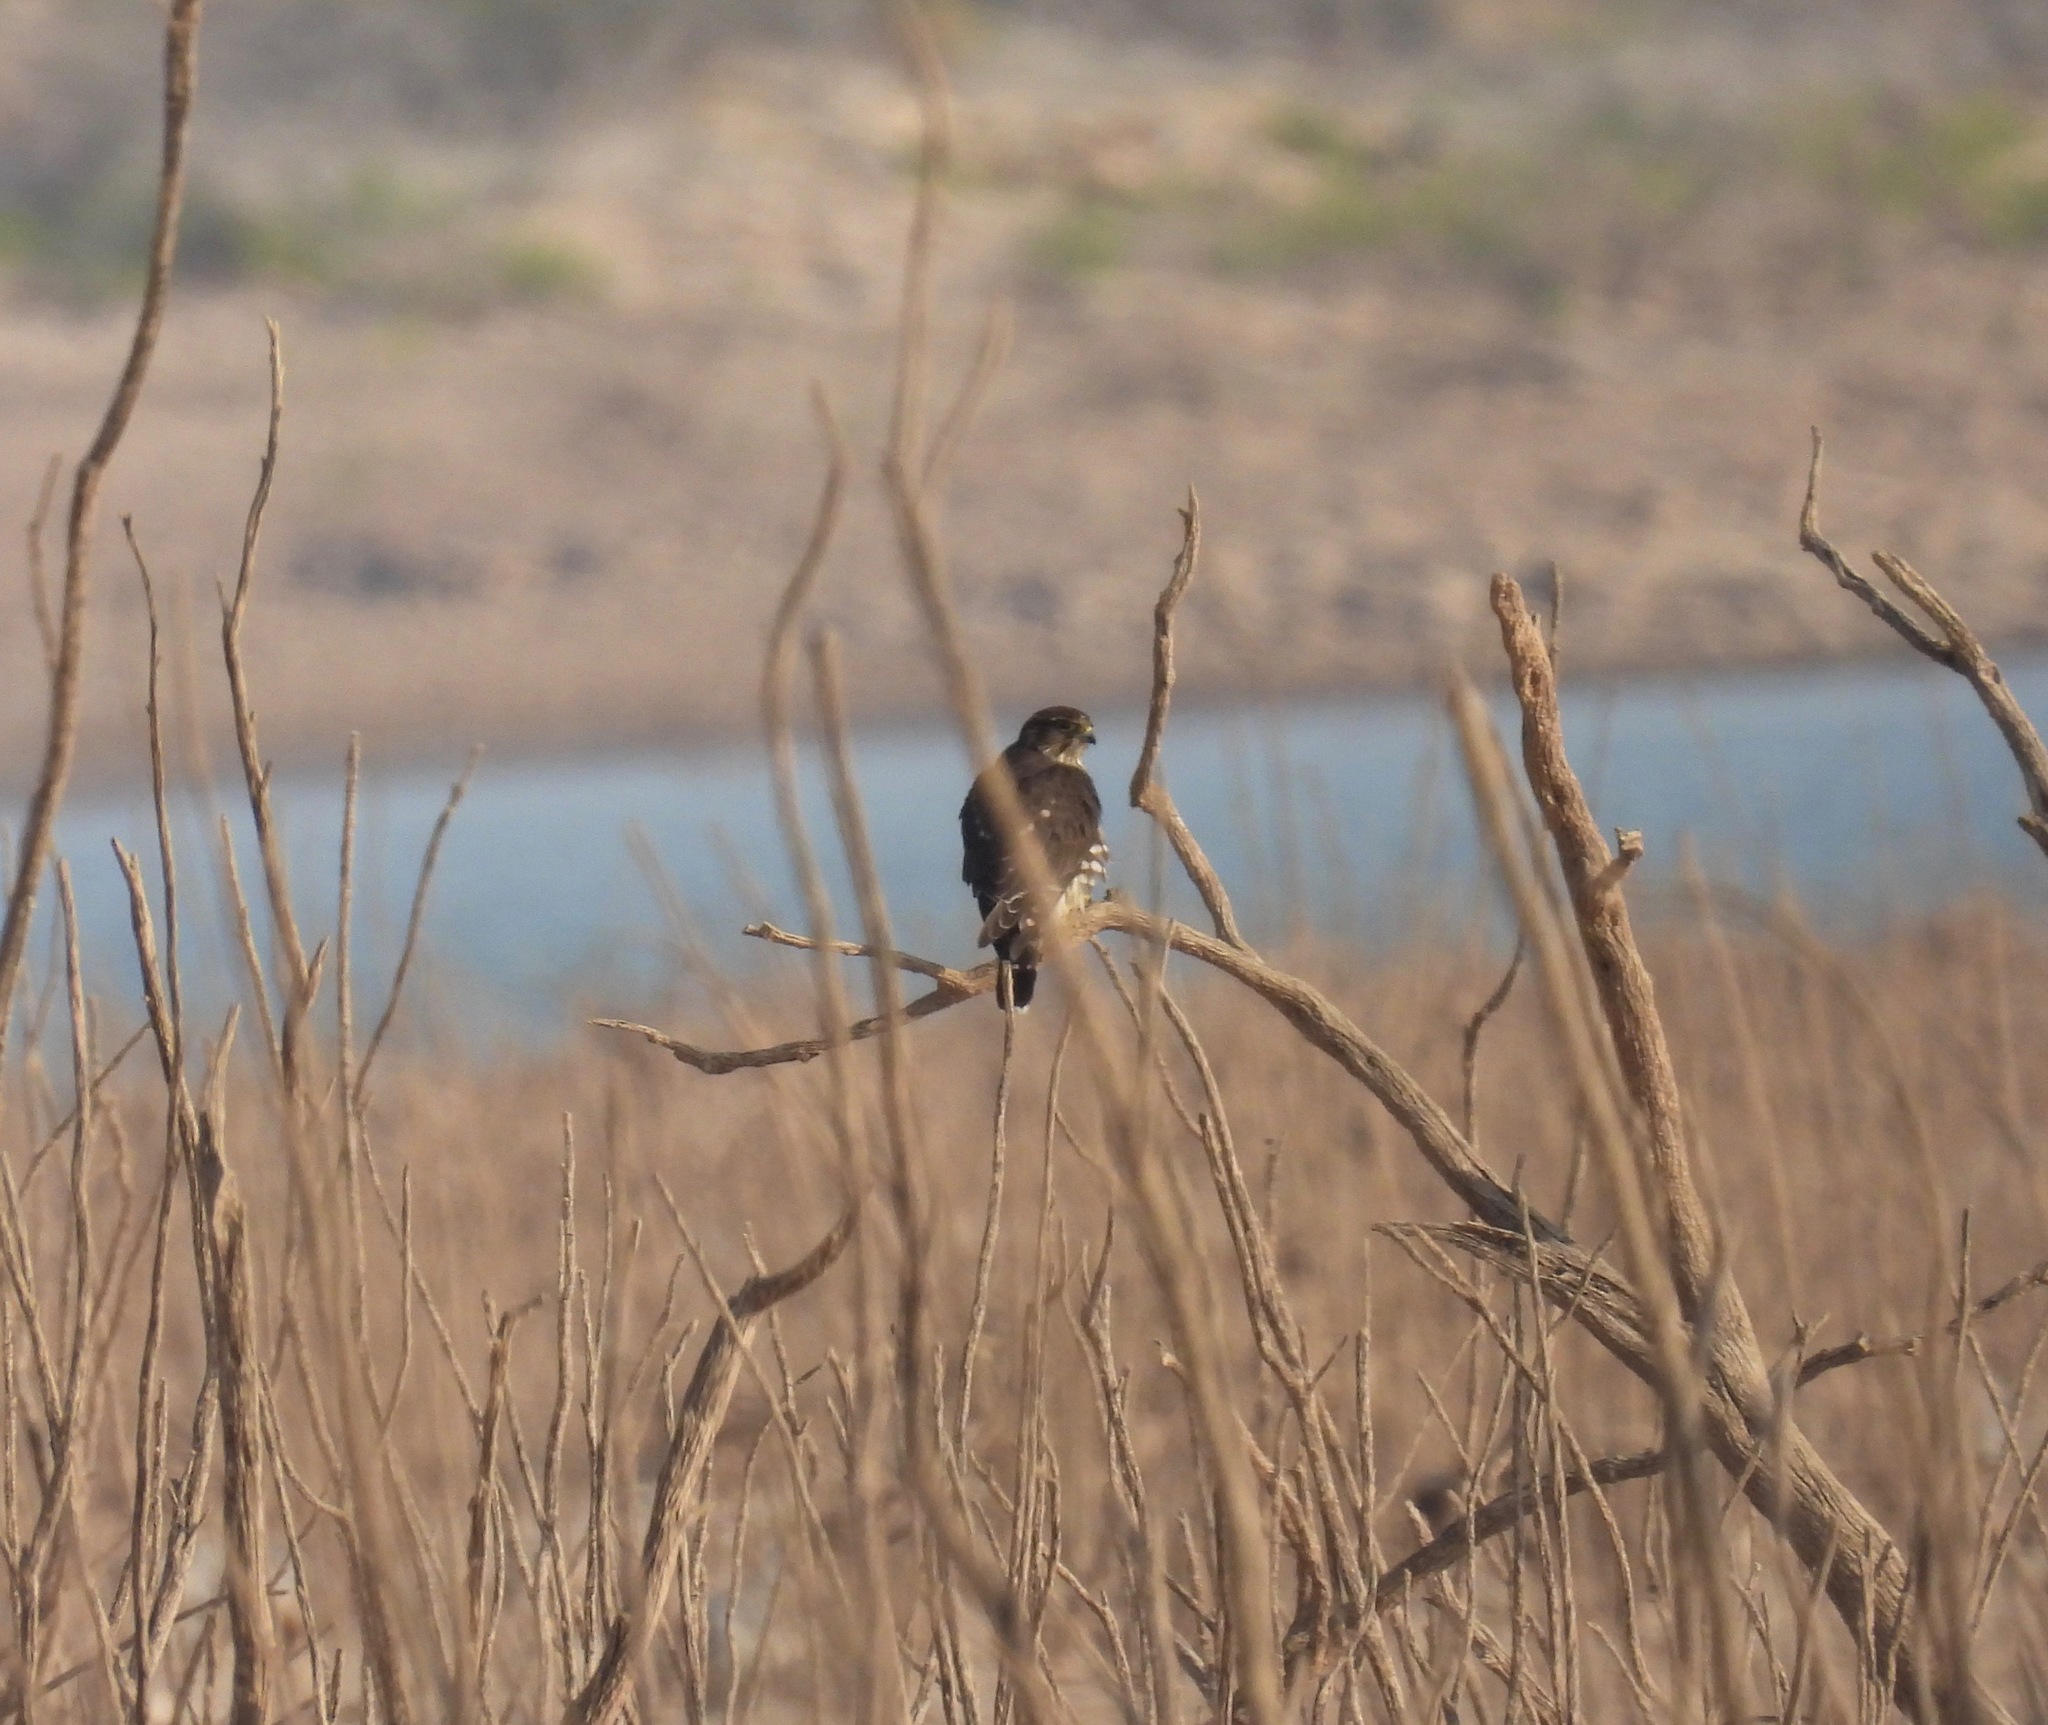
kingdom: Animalia
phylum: Chordata
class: Aves
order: Falconiformes
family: Falconidae
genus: Falco
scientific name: Falco columbarius
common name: Merlin
